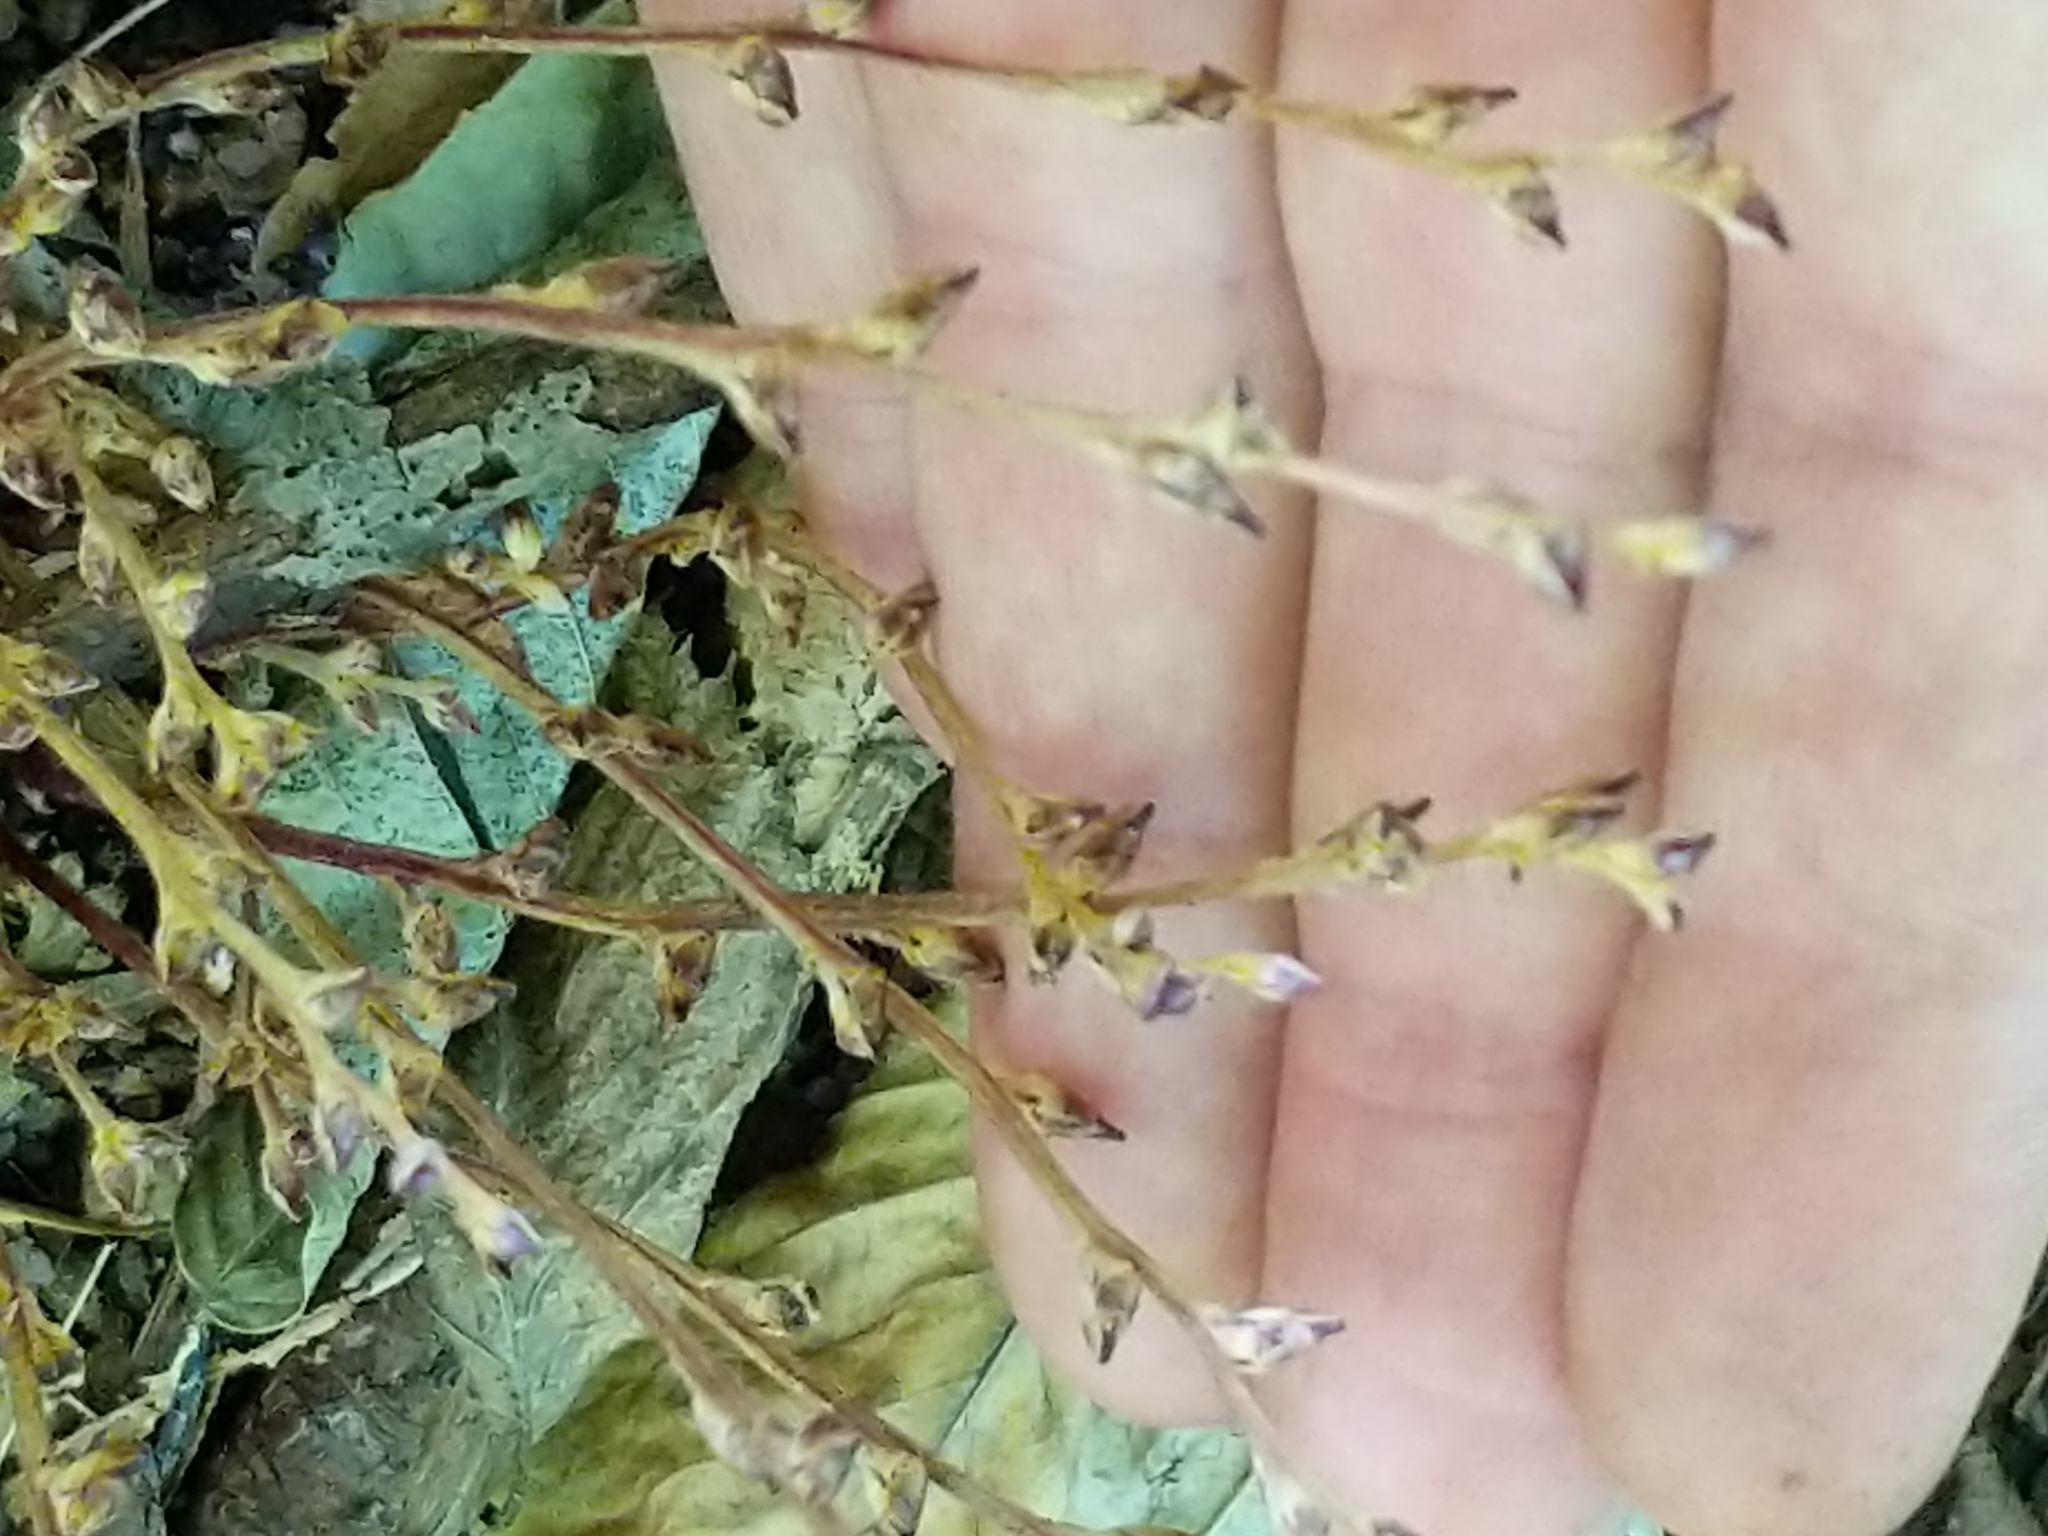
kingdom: Plantae
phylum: Tracheophyta
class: Magnoliopsida
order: Lamiales
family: Orobanchaceae
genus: Epifagus
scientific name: Epifagus virginiana
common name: Beechdrops
